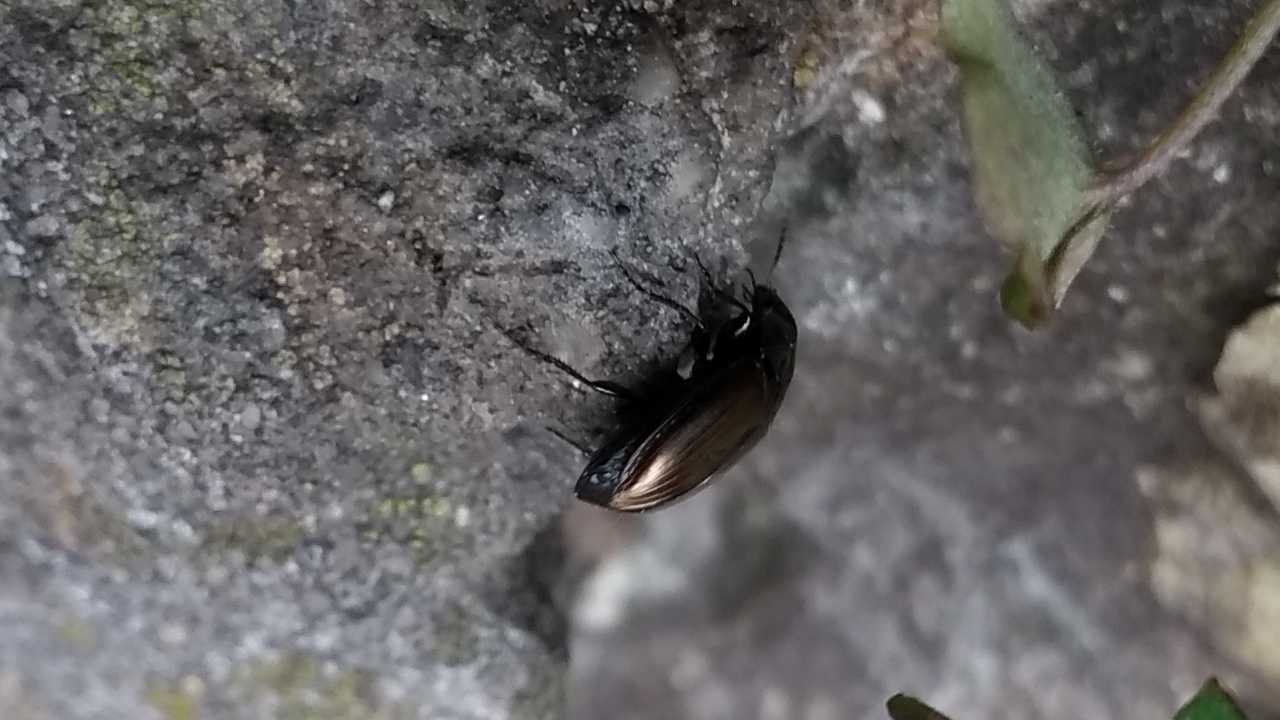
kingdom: Animalia
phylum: Arthropoda
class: Insecta
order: Coleoptera
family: Carabidae
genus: Amara
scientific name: Amara
